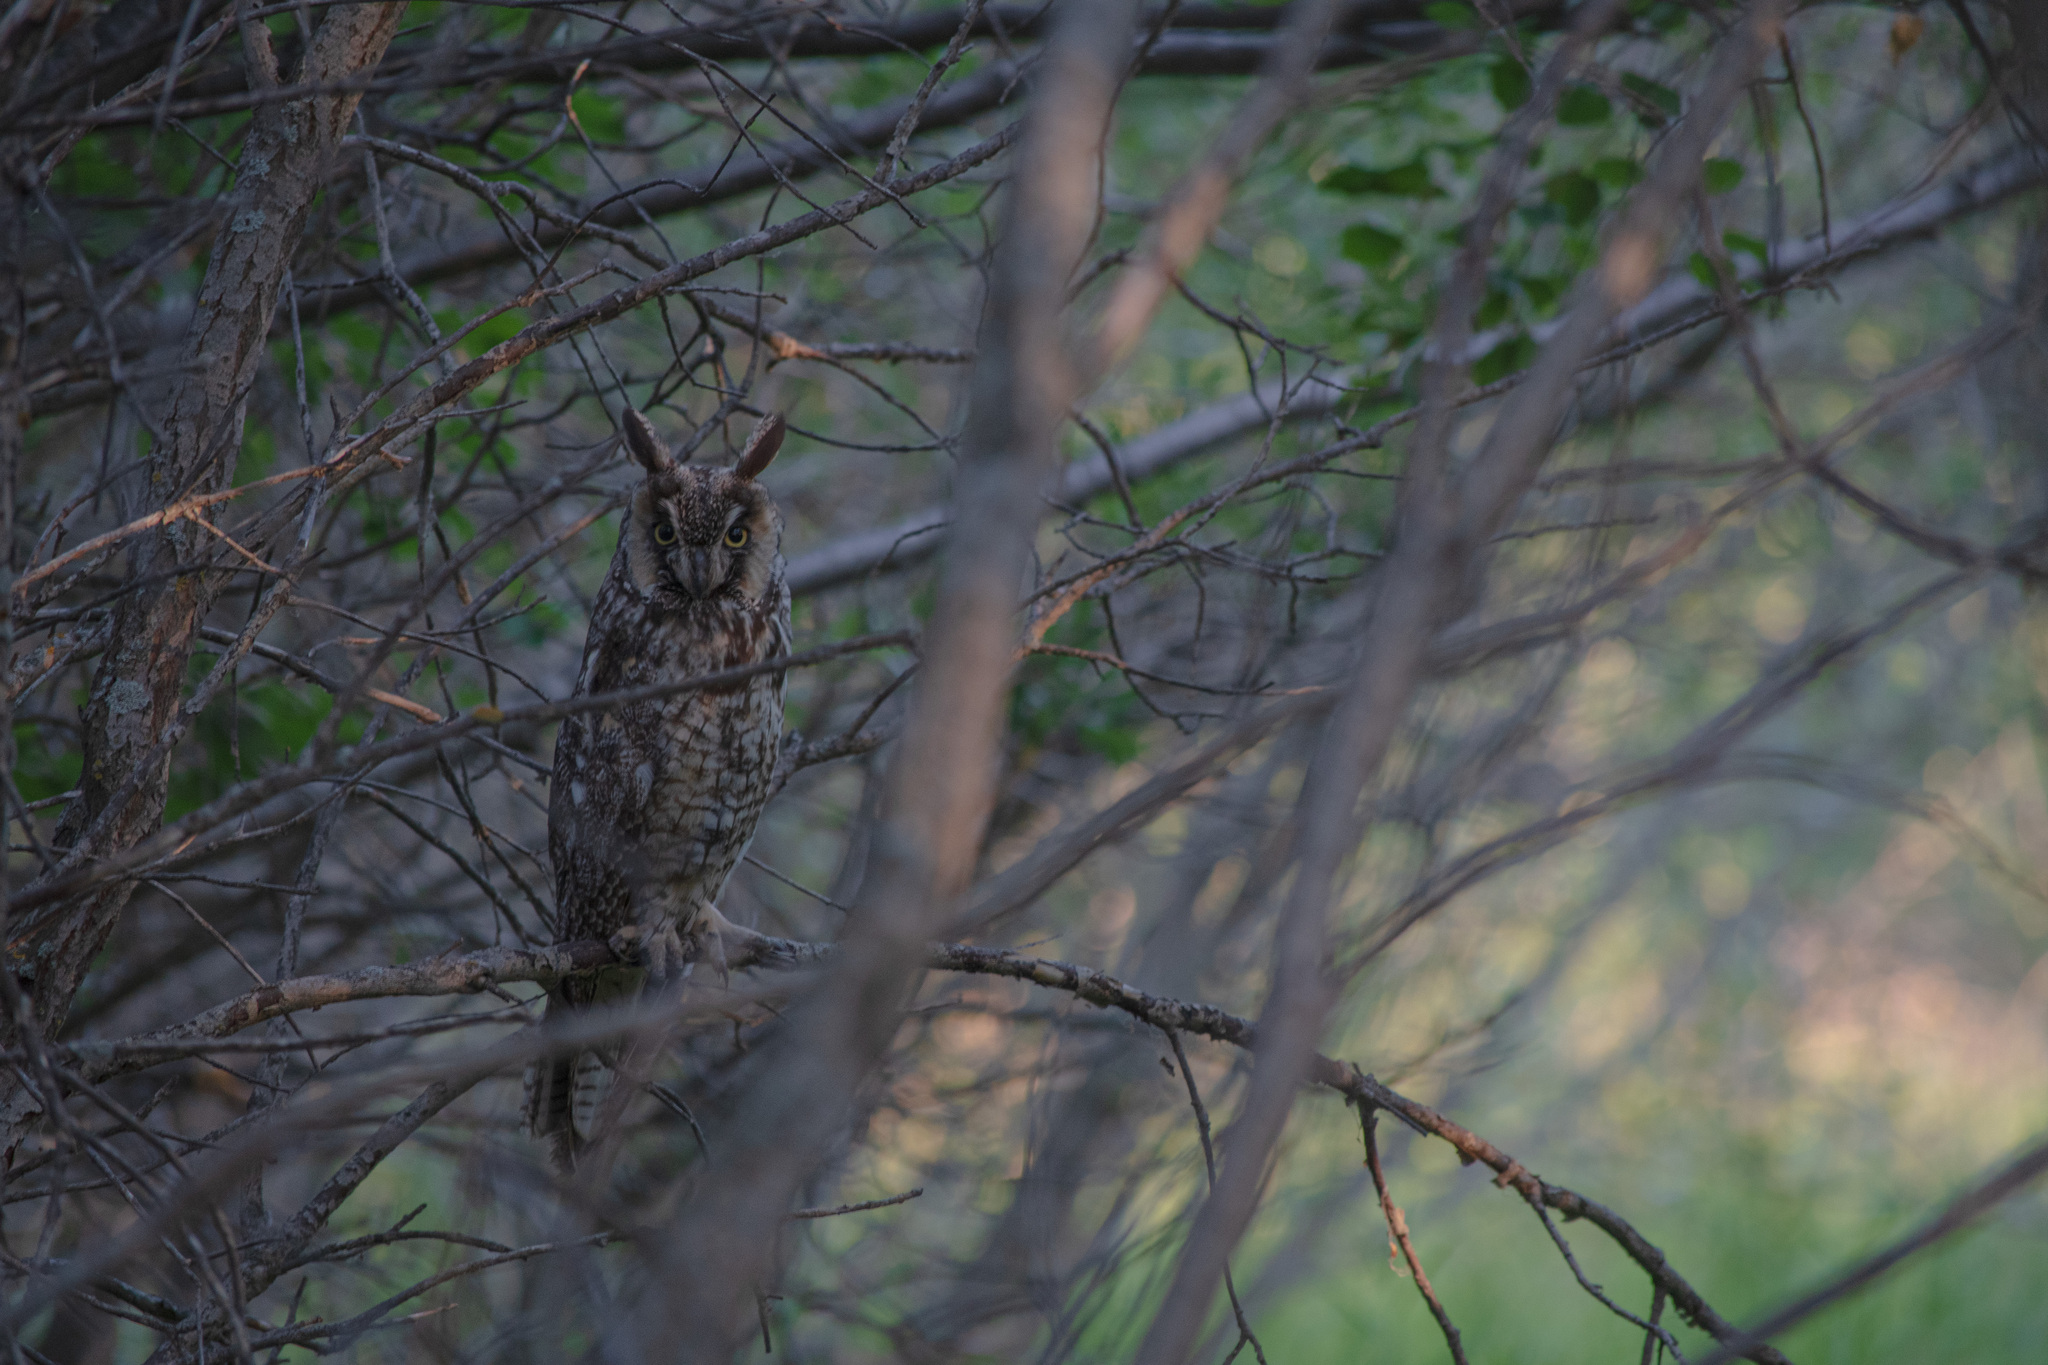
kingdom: Animalia
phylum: Chordata
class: Aves
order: Strigiformes
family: Strigidae
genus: Asio
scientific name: Asio otus
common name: Long-eared owl
